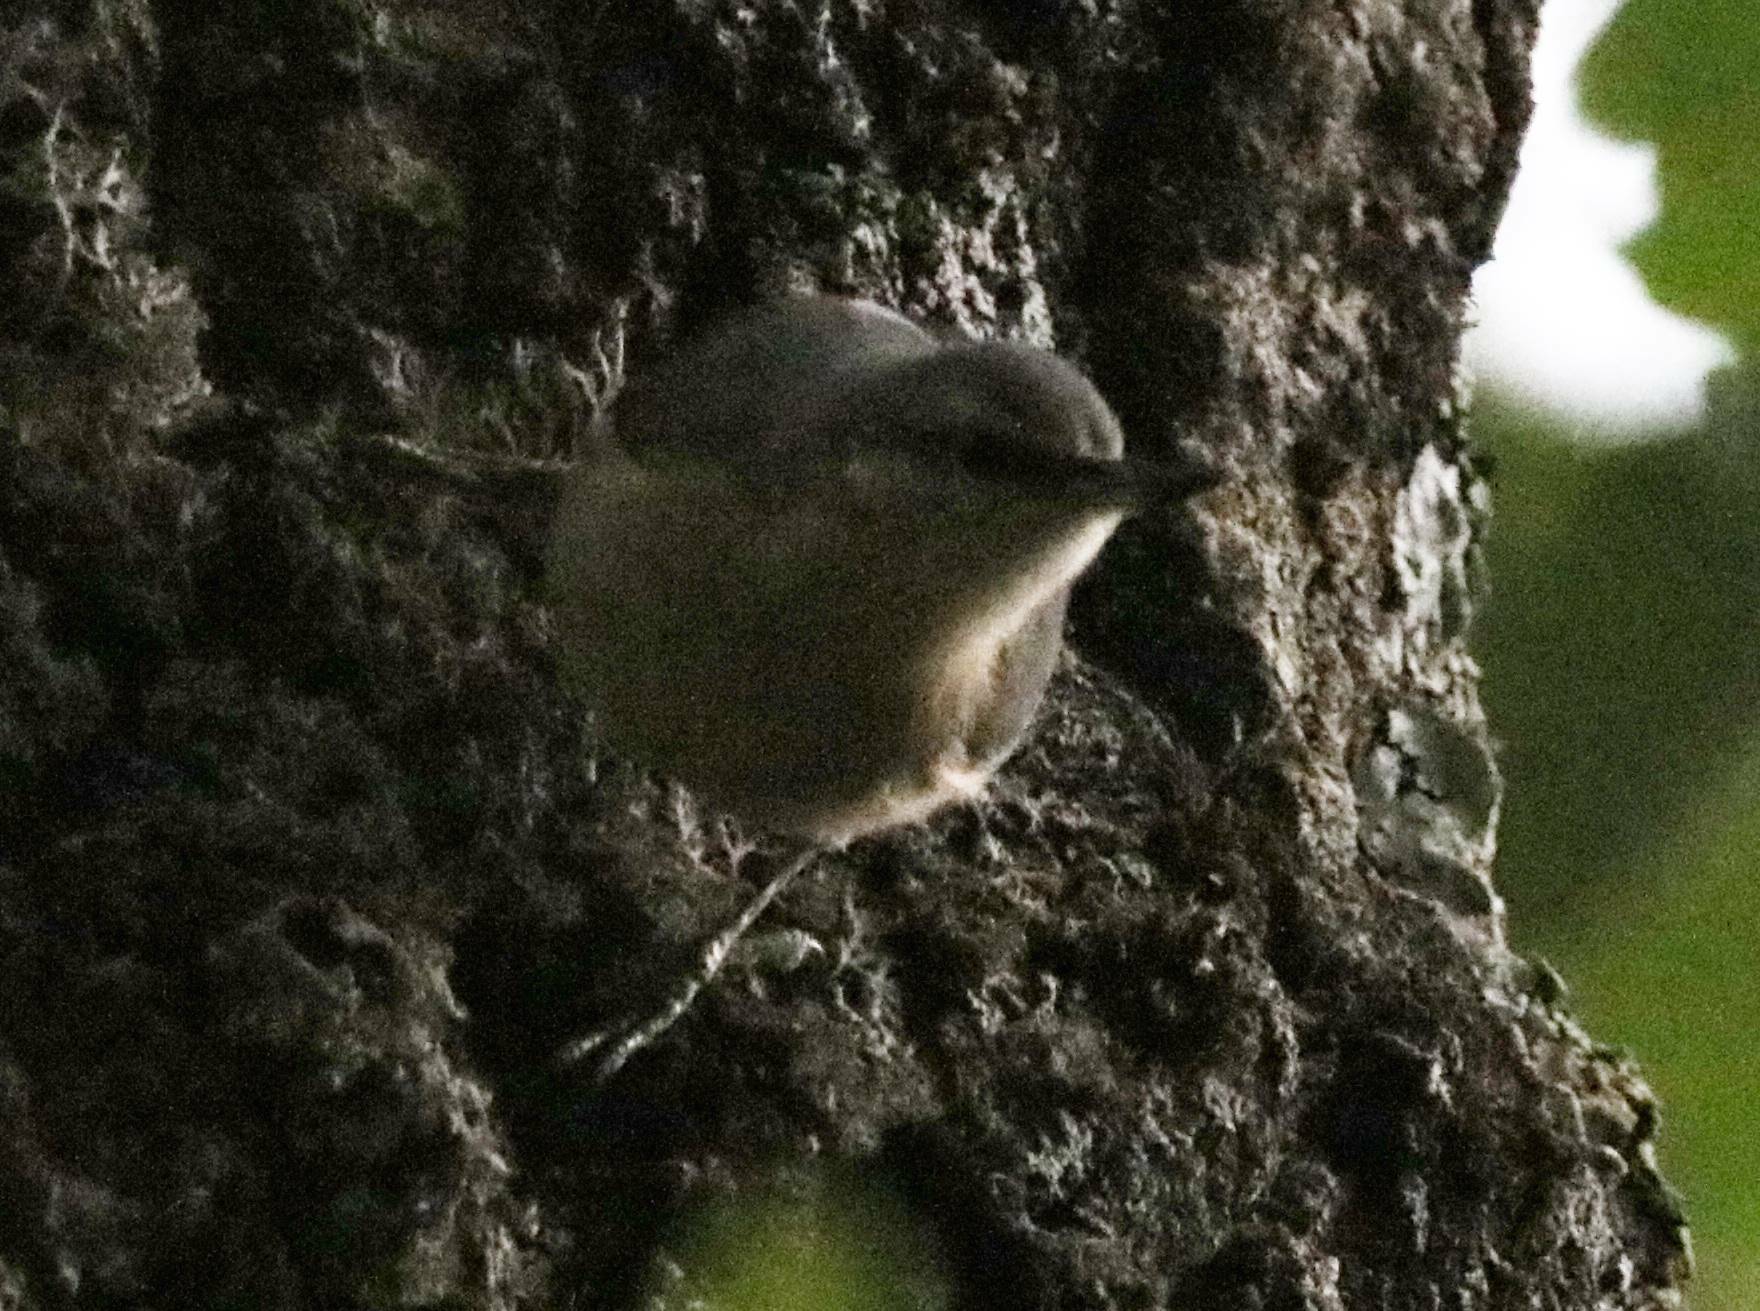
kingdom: Animalia
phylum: Chordata
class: Aves
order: Passeriformes
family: Sittidae
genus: Sitta
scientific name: Sitta ledanti
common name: Algerian nuthatch
